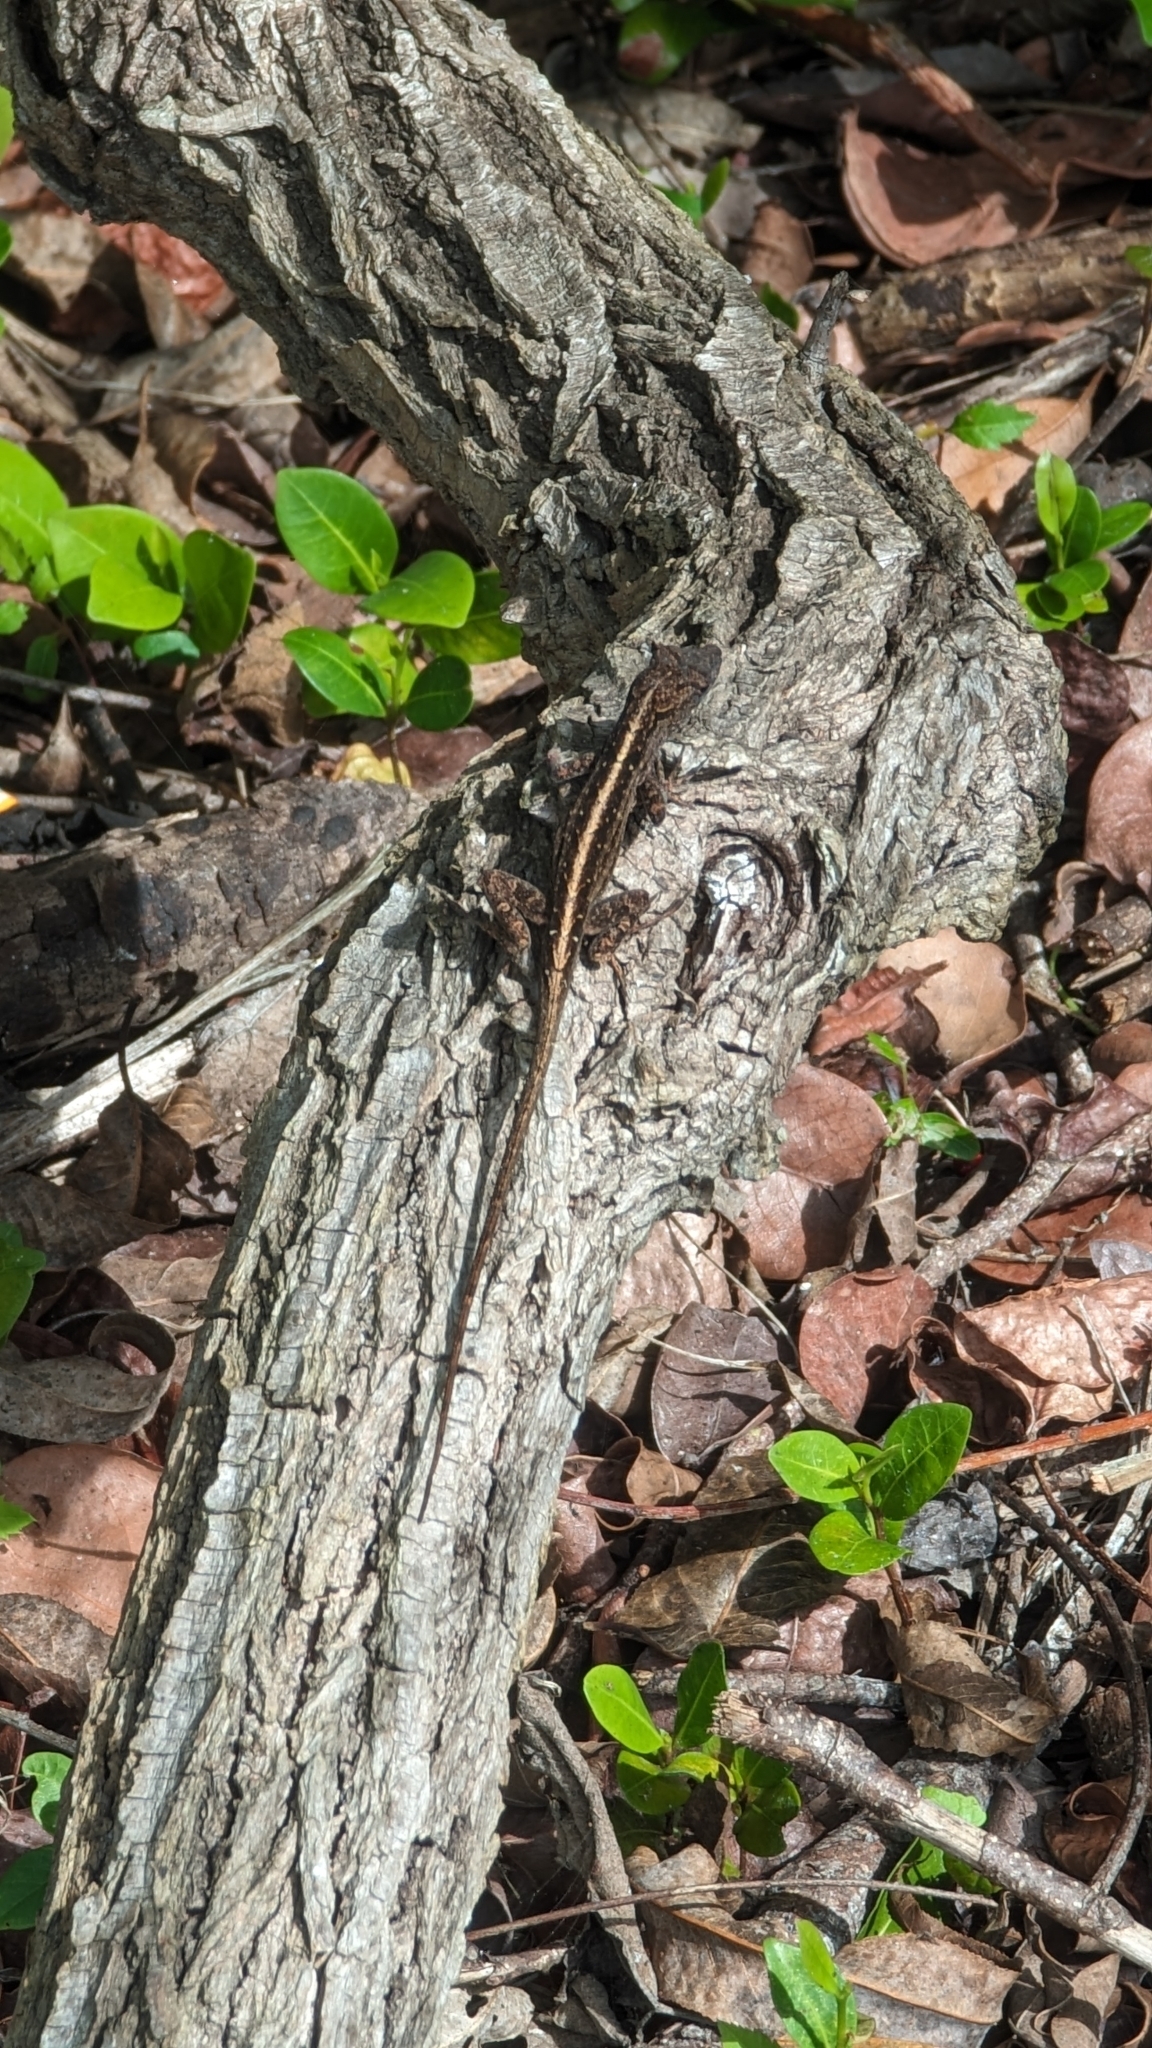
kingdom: Animalia
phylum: Chordata
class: Squamata
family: Dactyloidae
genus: Anolis
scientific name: Anolis sagrei
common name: Brown anole
